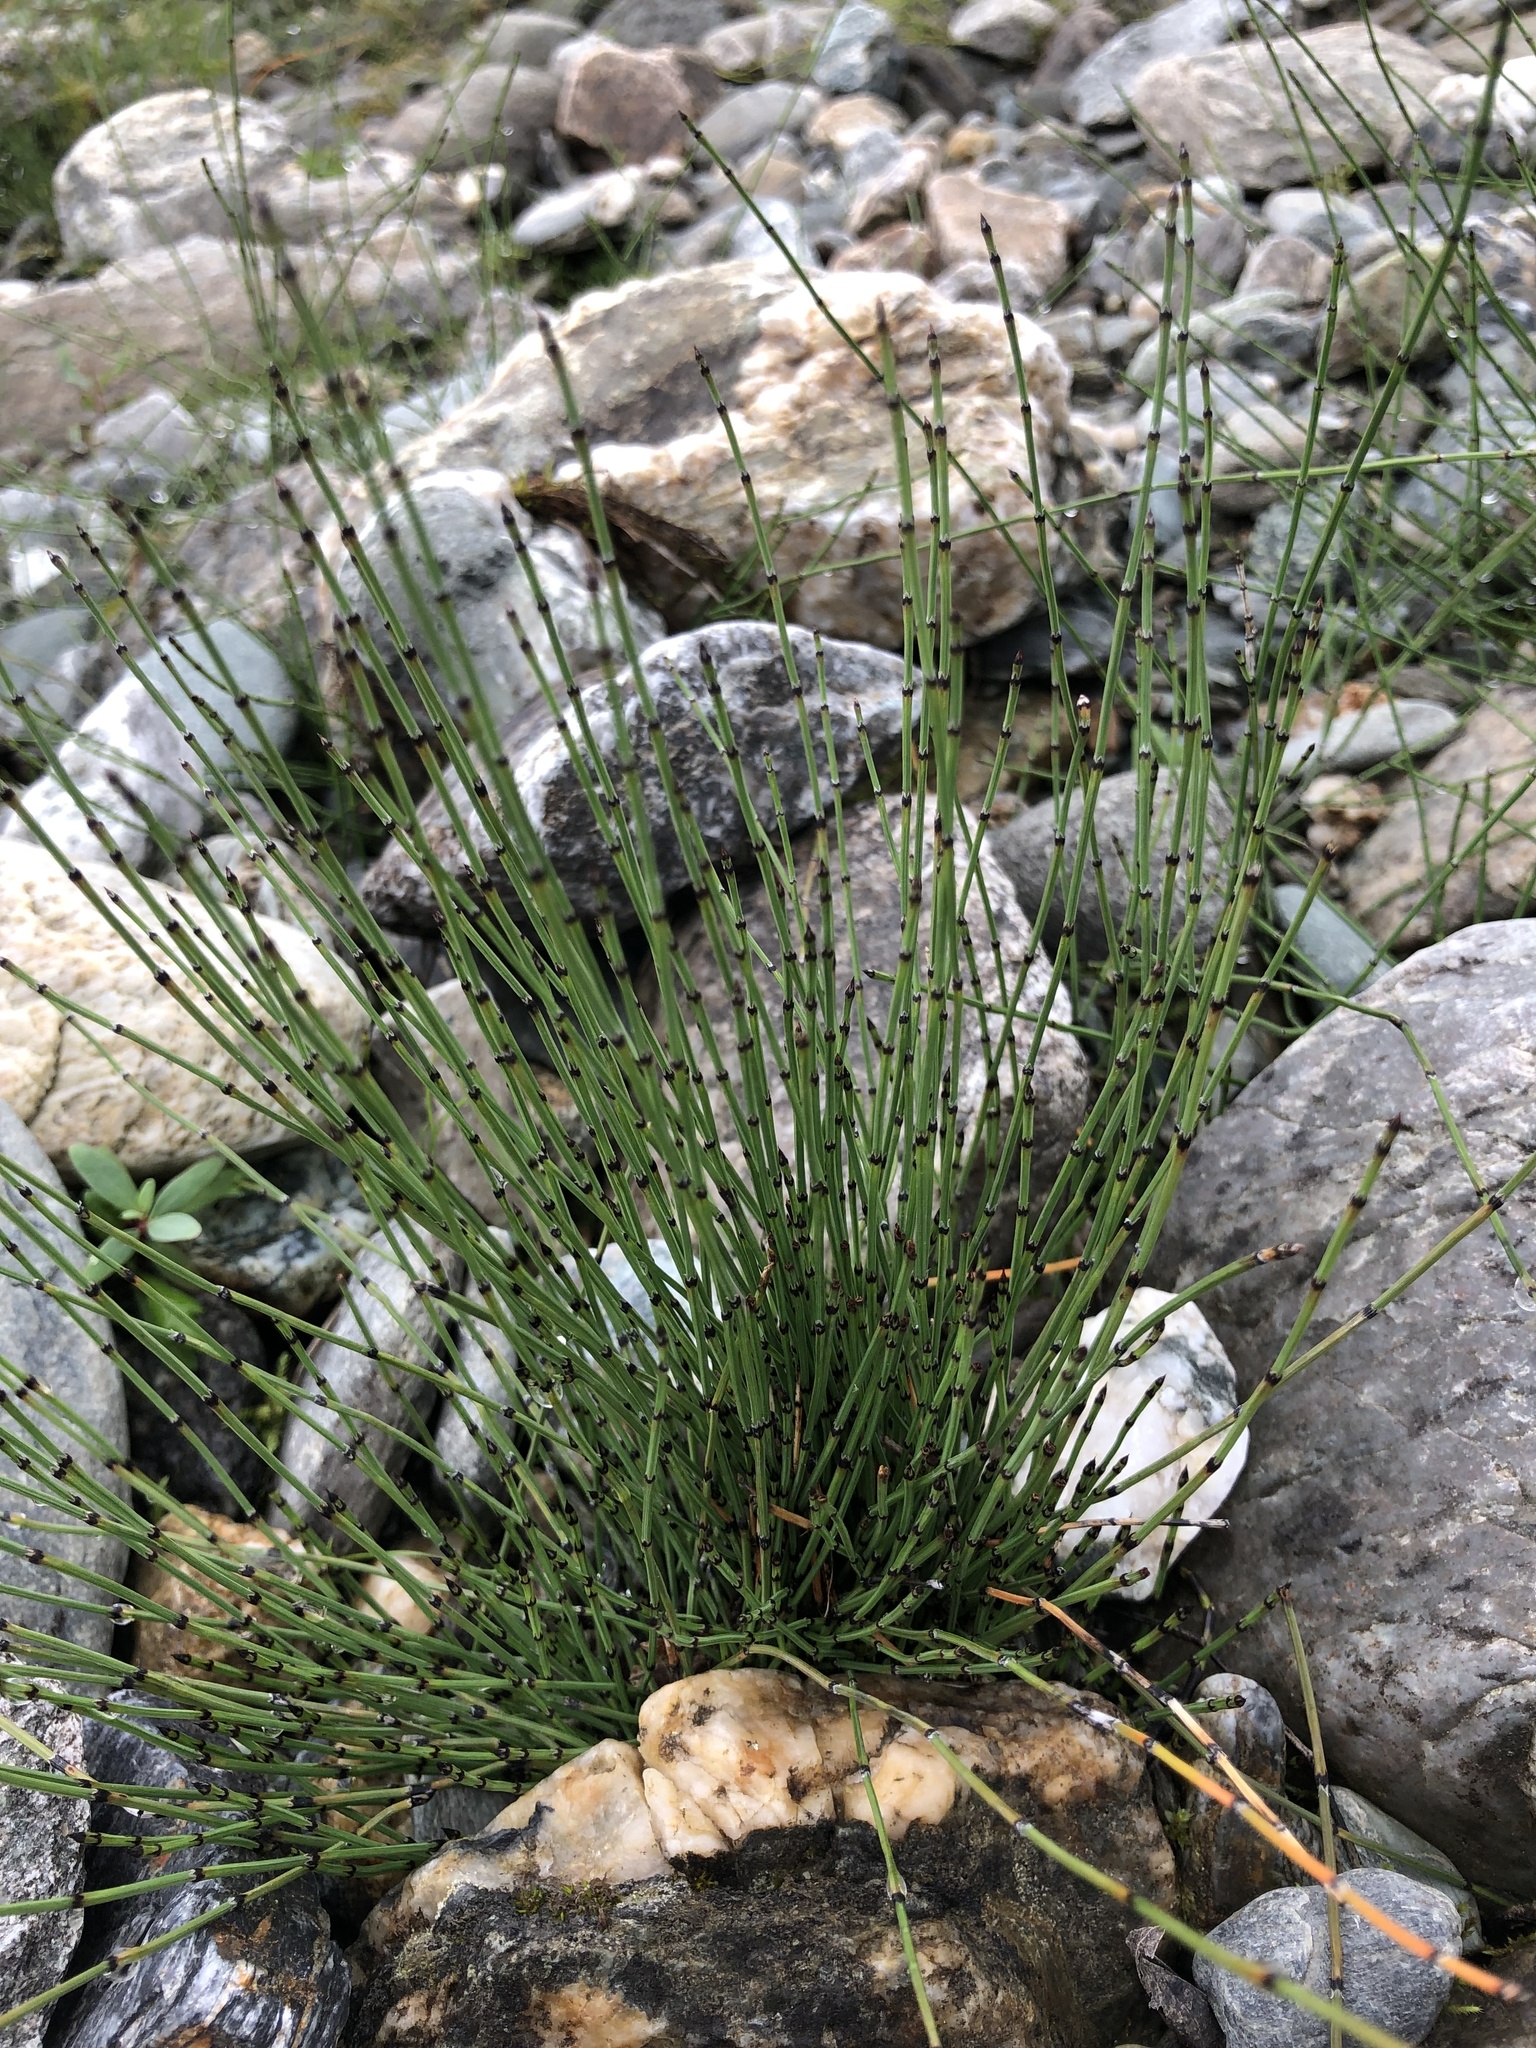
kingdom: Plantae
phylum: Tracheophyta
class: Polypodiopsida
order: Equisetales
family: Equisetaceae
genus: Equisetum
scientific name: Equisetum variegatum
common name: Variegated horsetail
